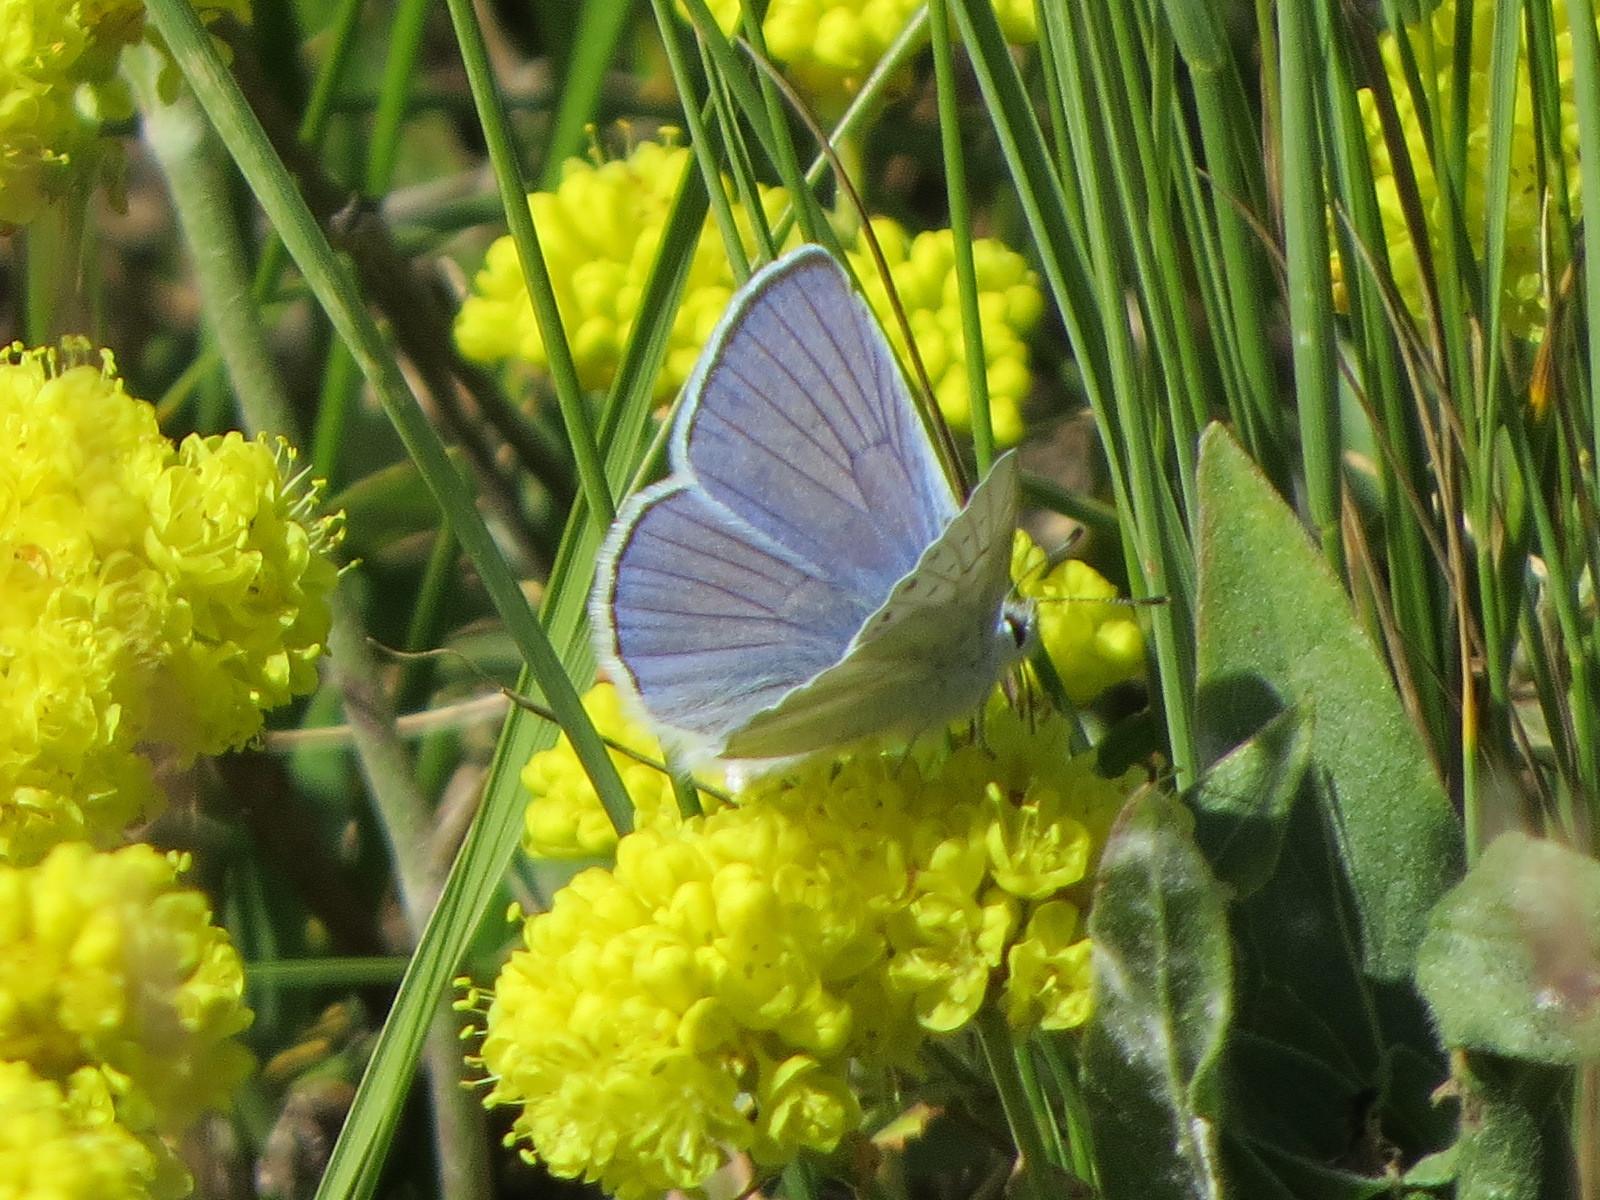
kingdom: Animalia
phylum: Arthropoda
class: Insecta
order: Lepidoptera
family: Lycaenidae
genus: Tharsalea
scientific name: Tharsalea heteronea
